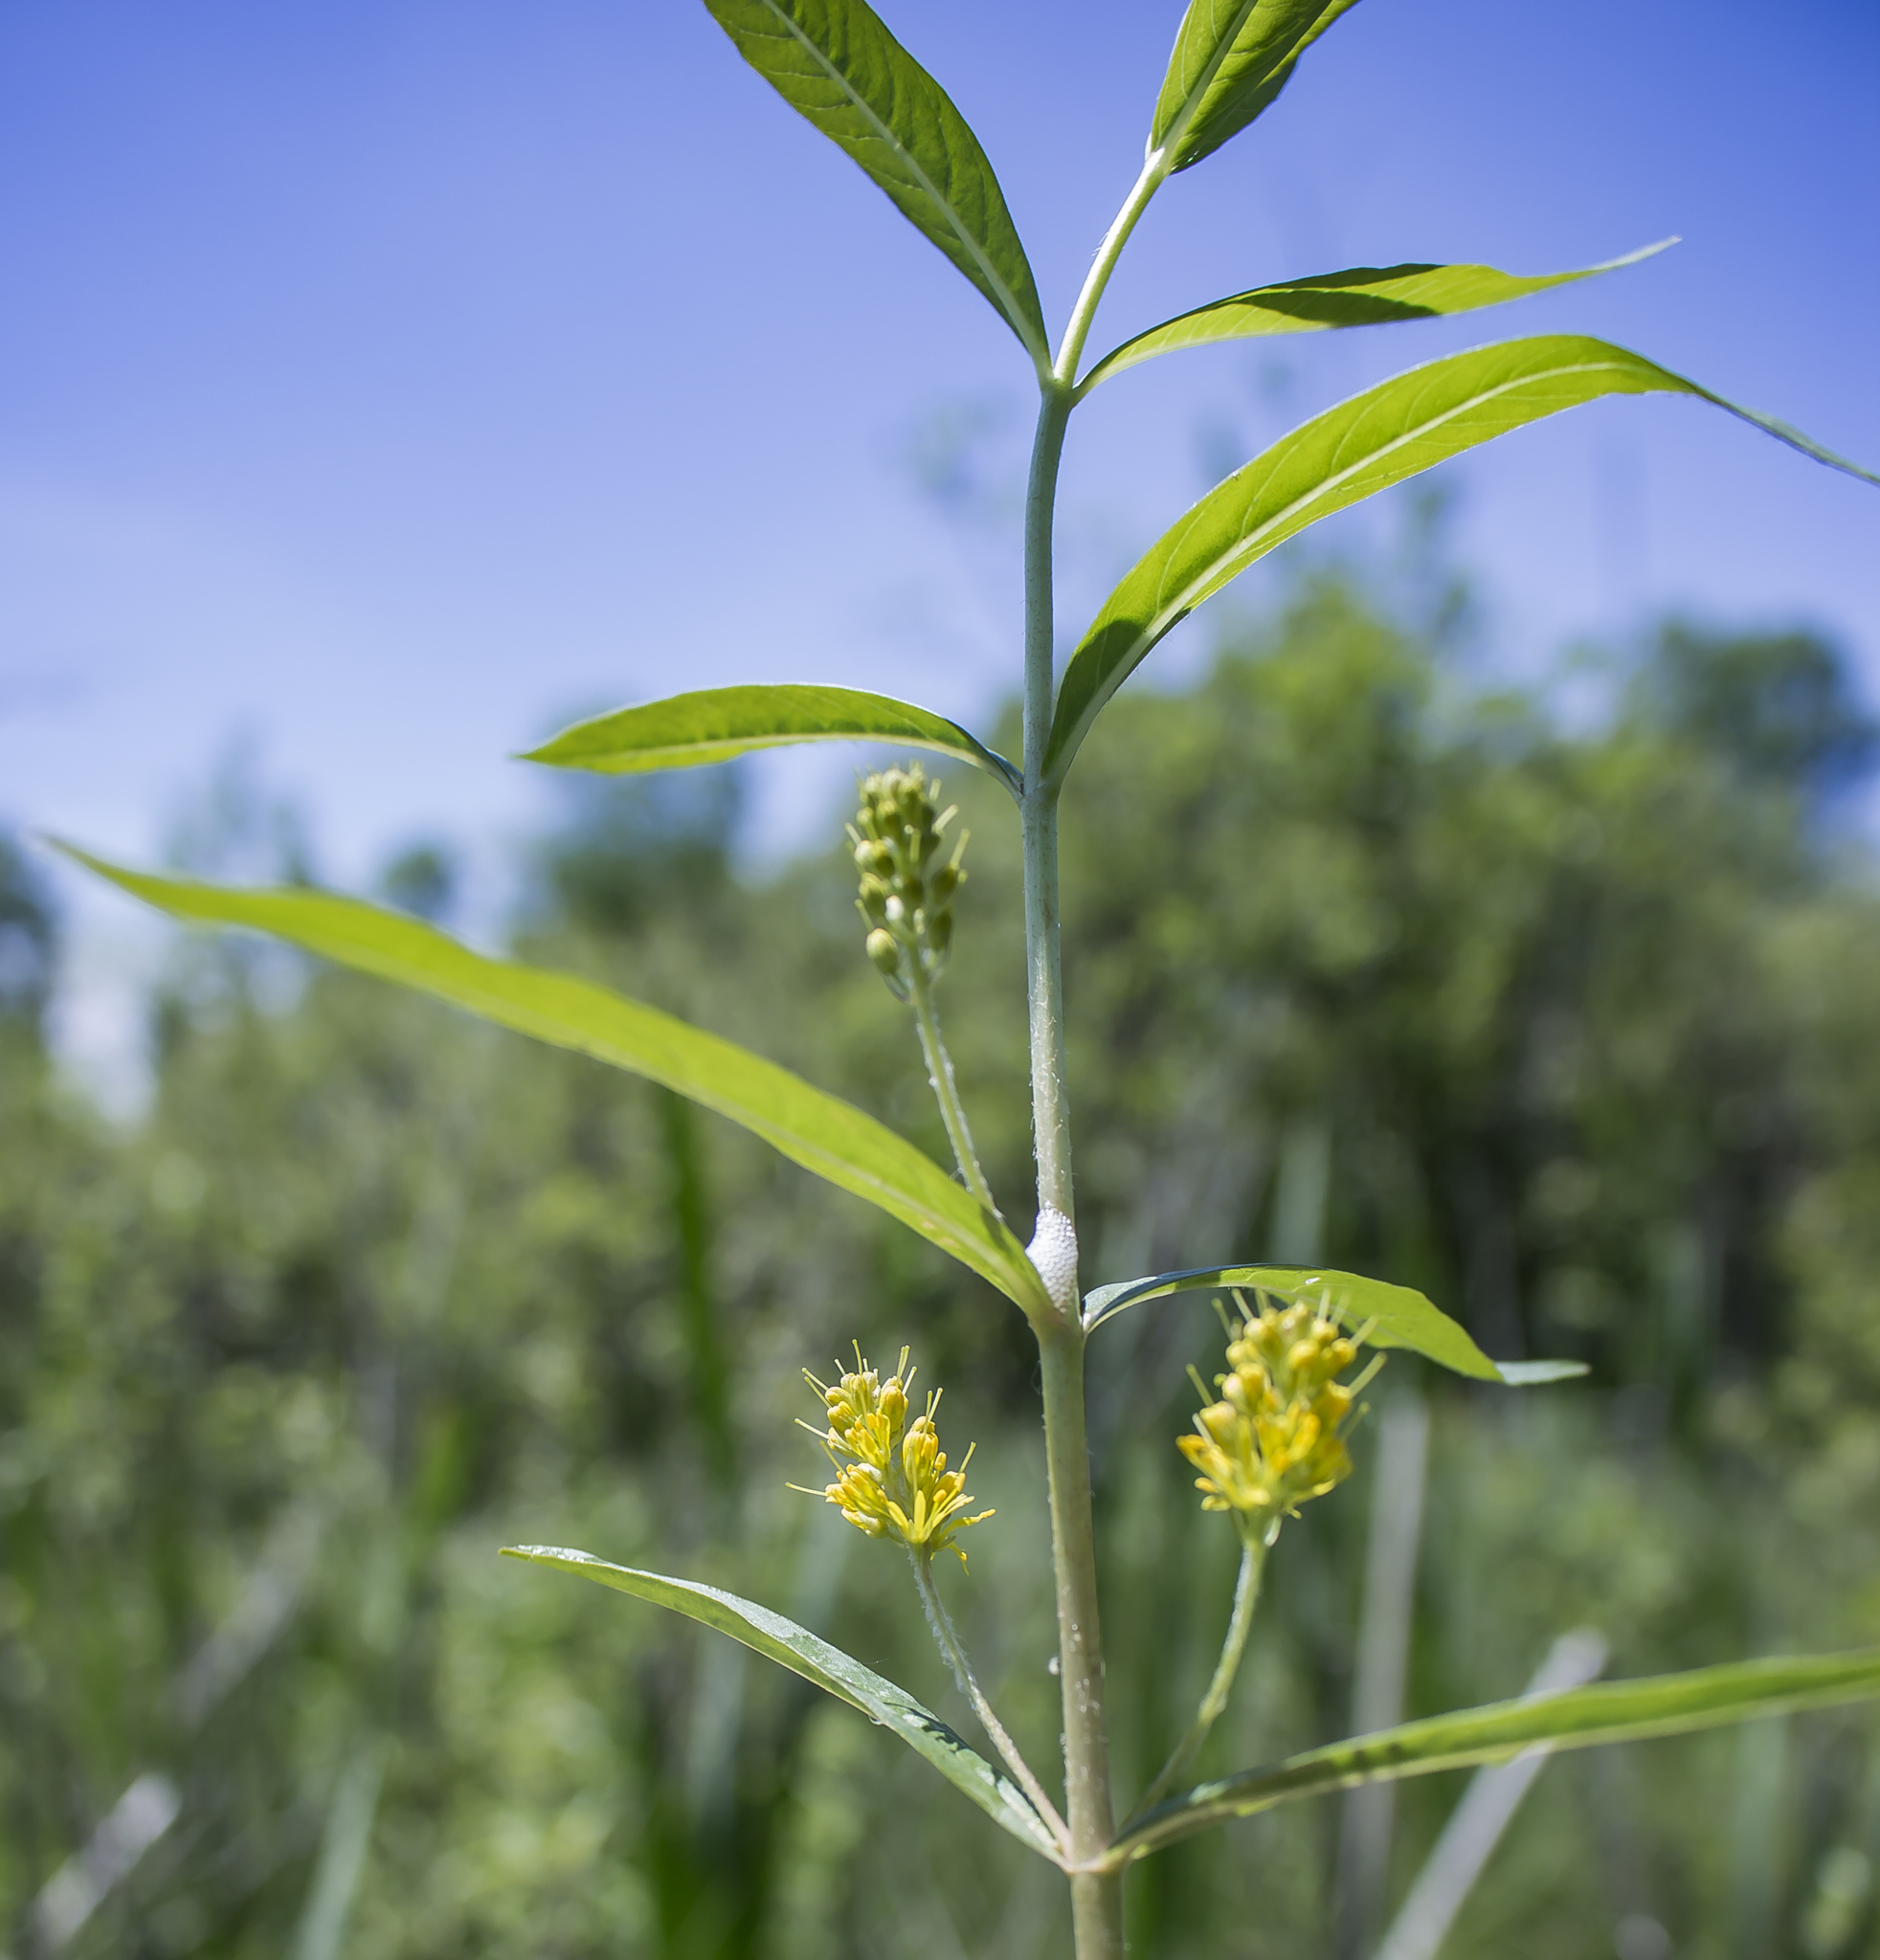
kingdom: Plantae
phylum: Tracheophyta
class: Magnoliopsida
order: Ericales
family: Primulaceae
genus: Lysimachia
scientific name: Lysimachia thyrsiflora
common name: Tufted loosestrife
